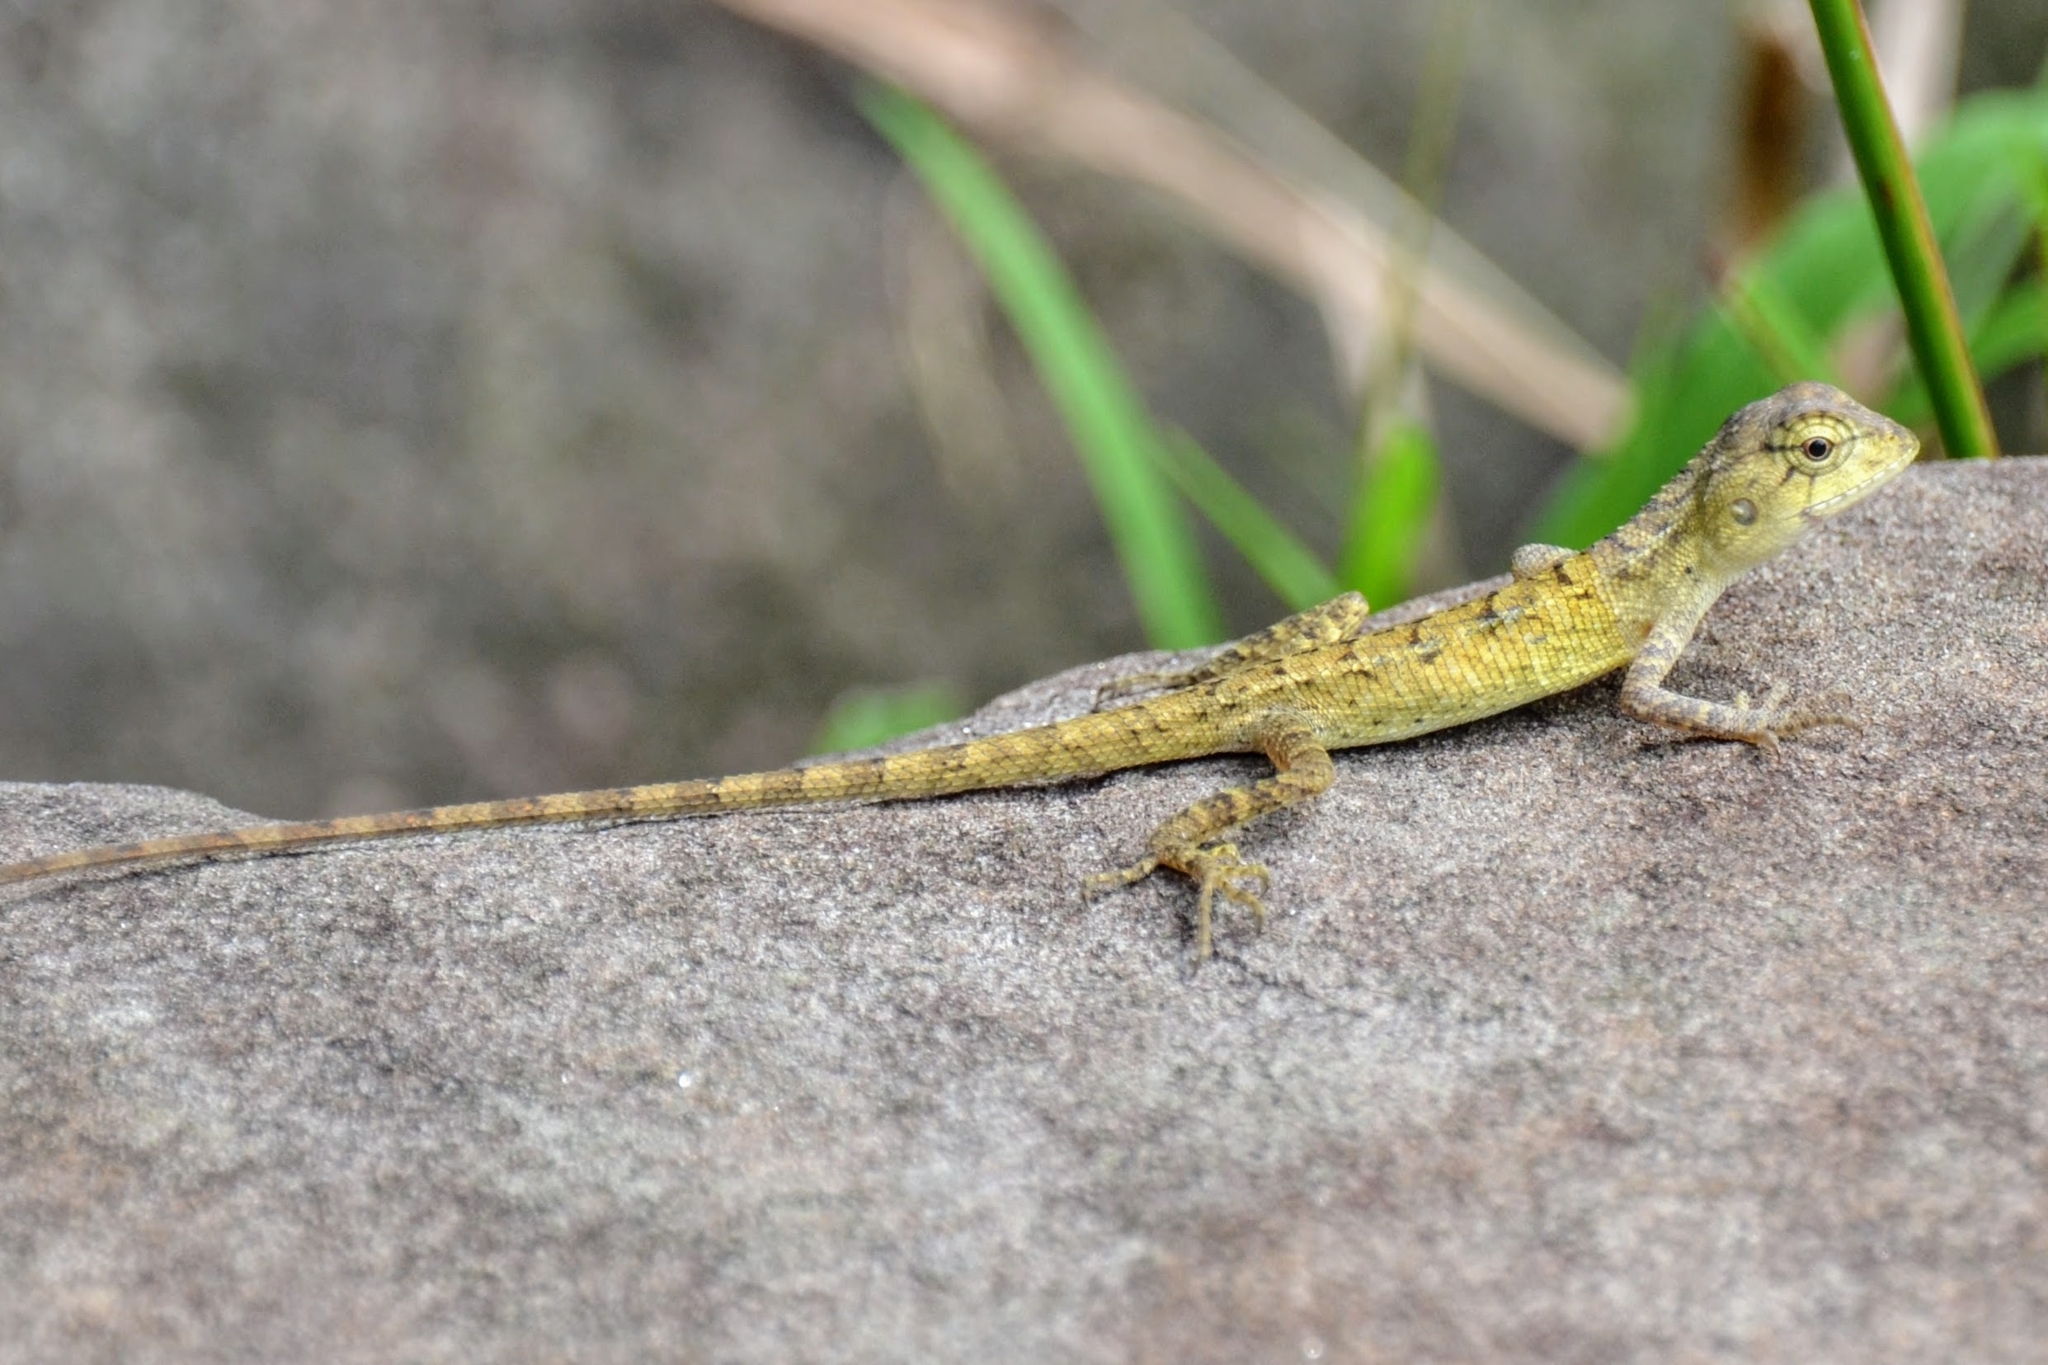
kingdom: Animalia
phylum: Chordata
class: Squamata
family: Agamidae
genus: Calotes
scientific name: Calotes versicolor
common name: Oriental garden lizard
